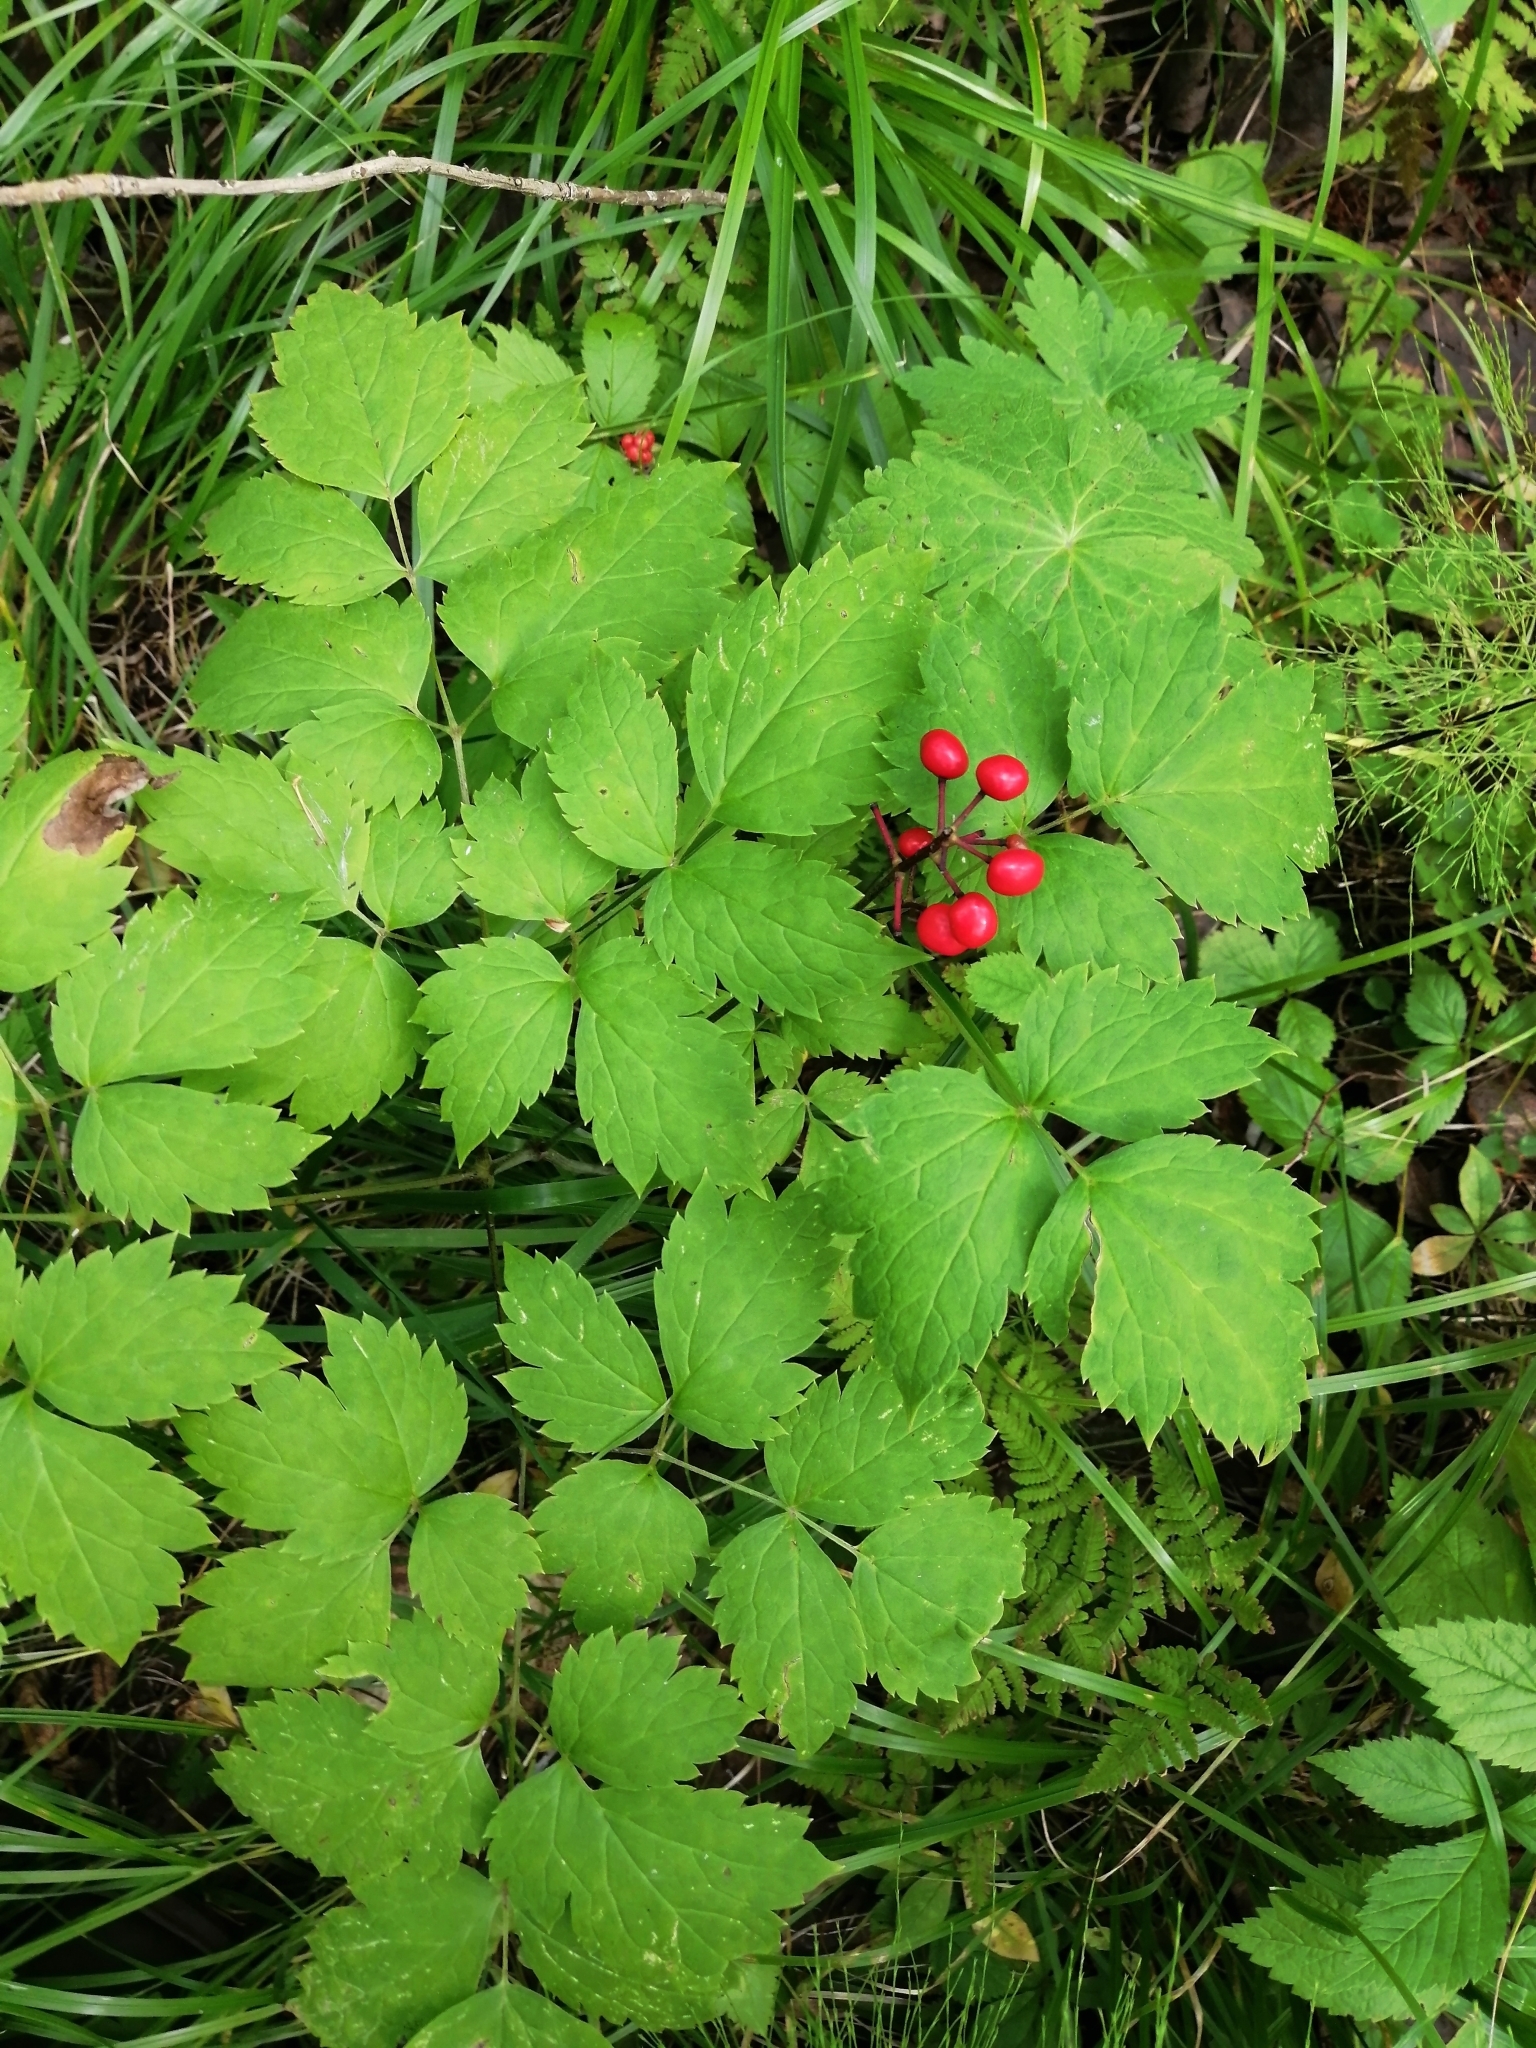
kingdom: Plantae
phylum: Tracheophyta
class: Magnoliopsida
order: Ranunculales
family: Ranunculaceae
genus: Actaea
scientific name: Actaea erythrocarpa
